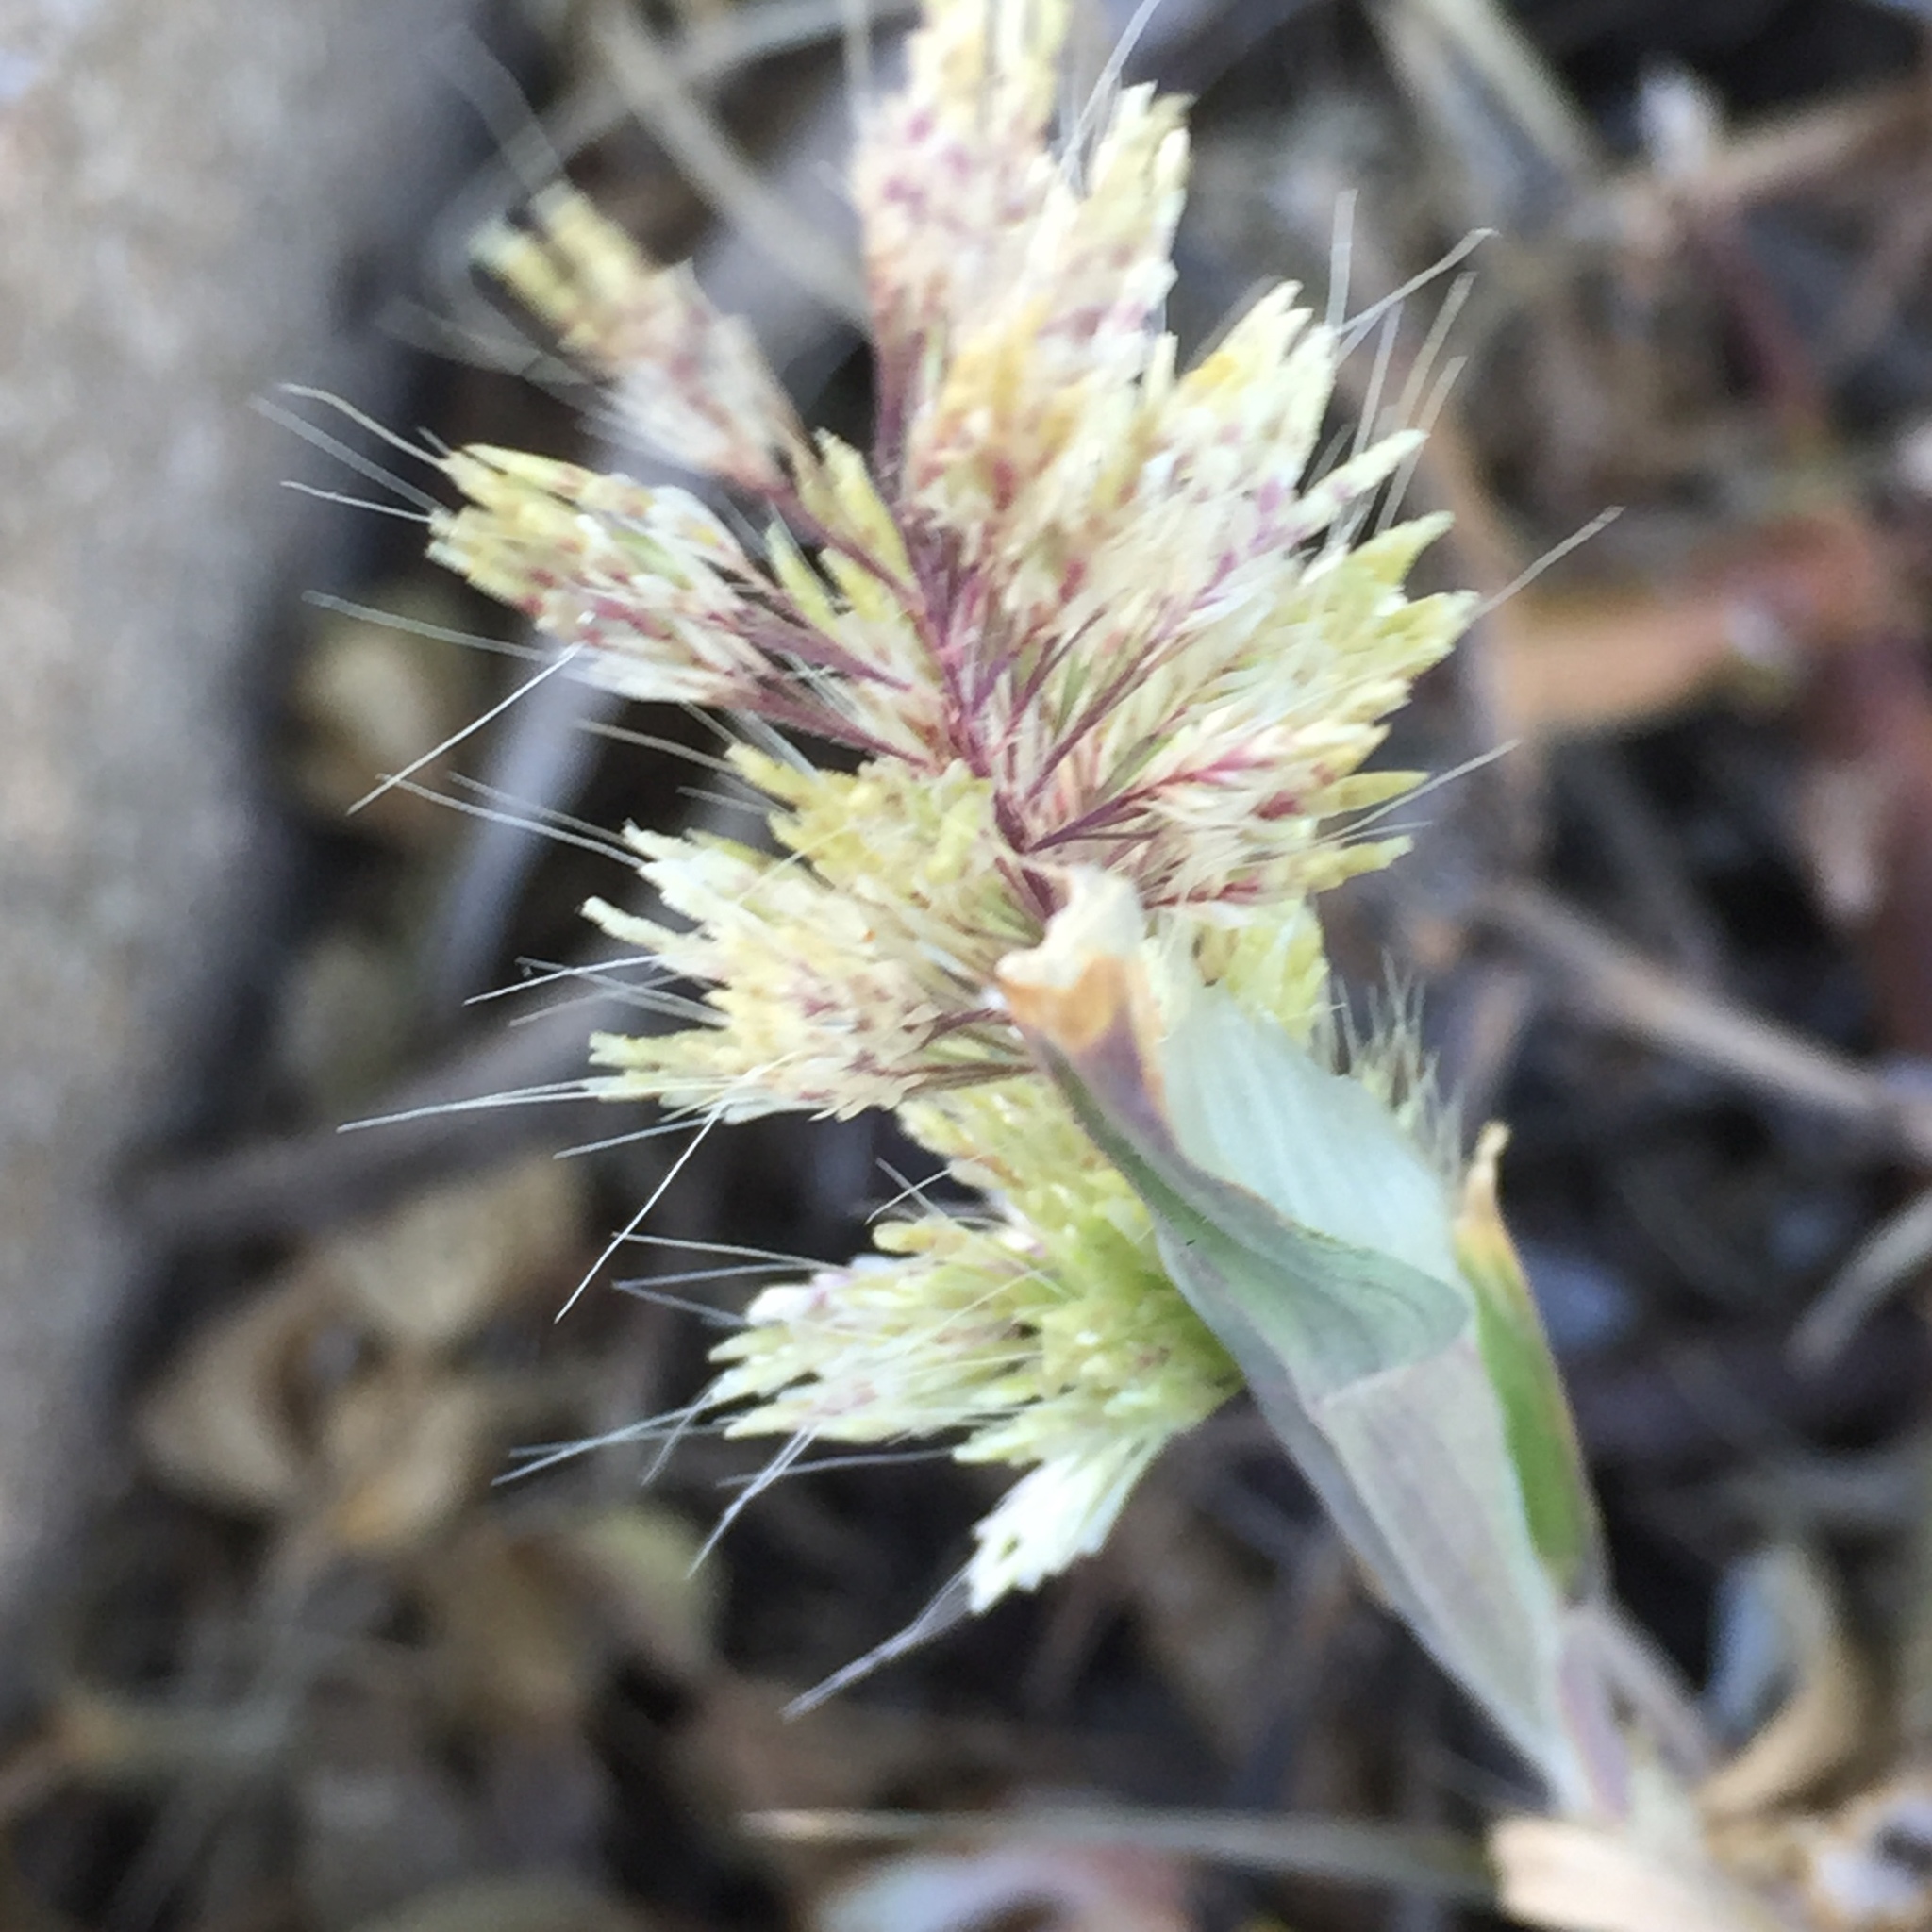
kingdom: Plantae
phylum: Tracheophyta
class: Liliopsida
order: Poales
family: Poaceae
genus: Lamarckia
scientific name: Lamarckia aurea
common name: Golden dog's-tail
